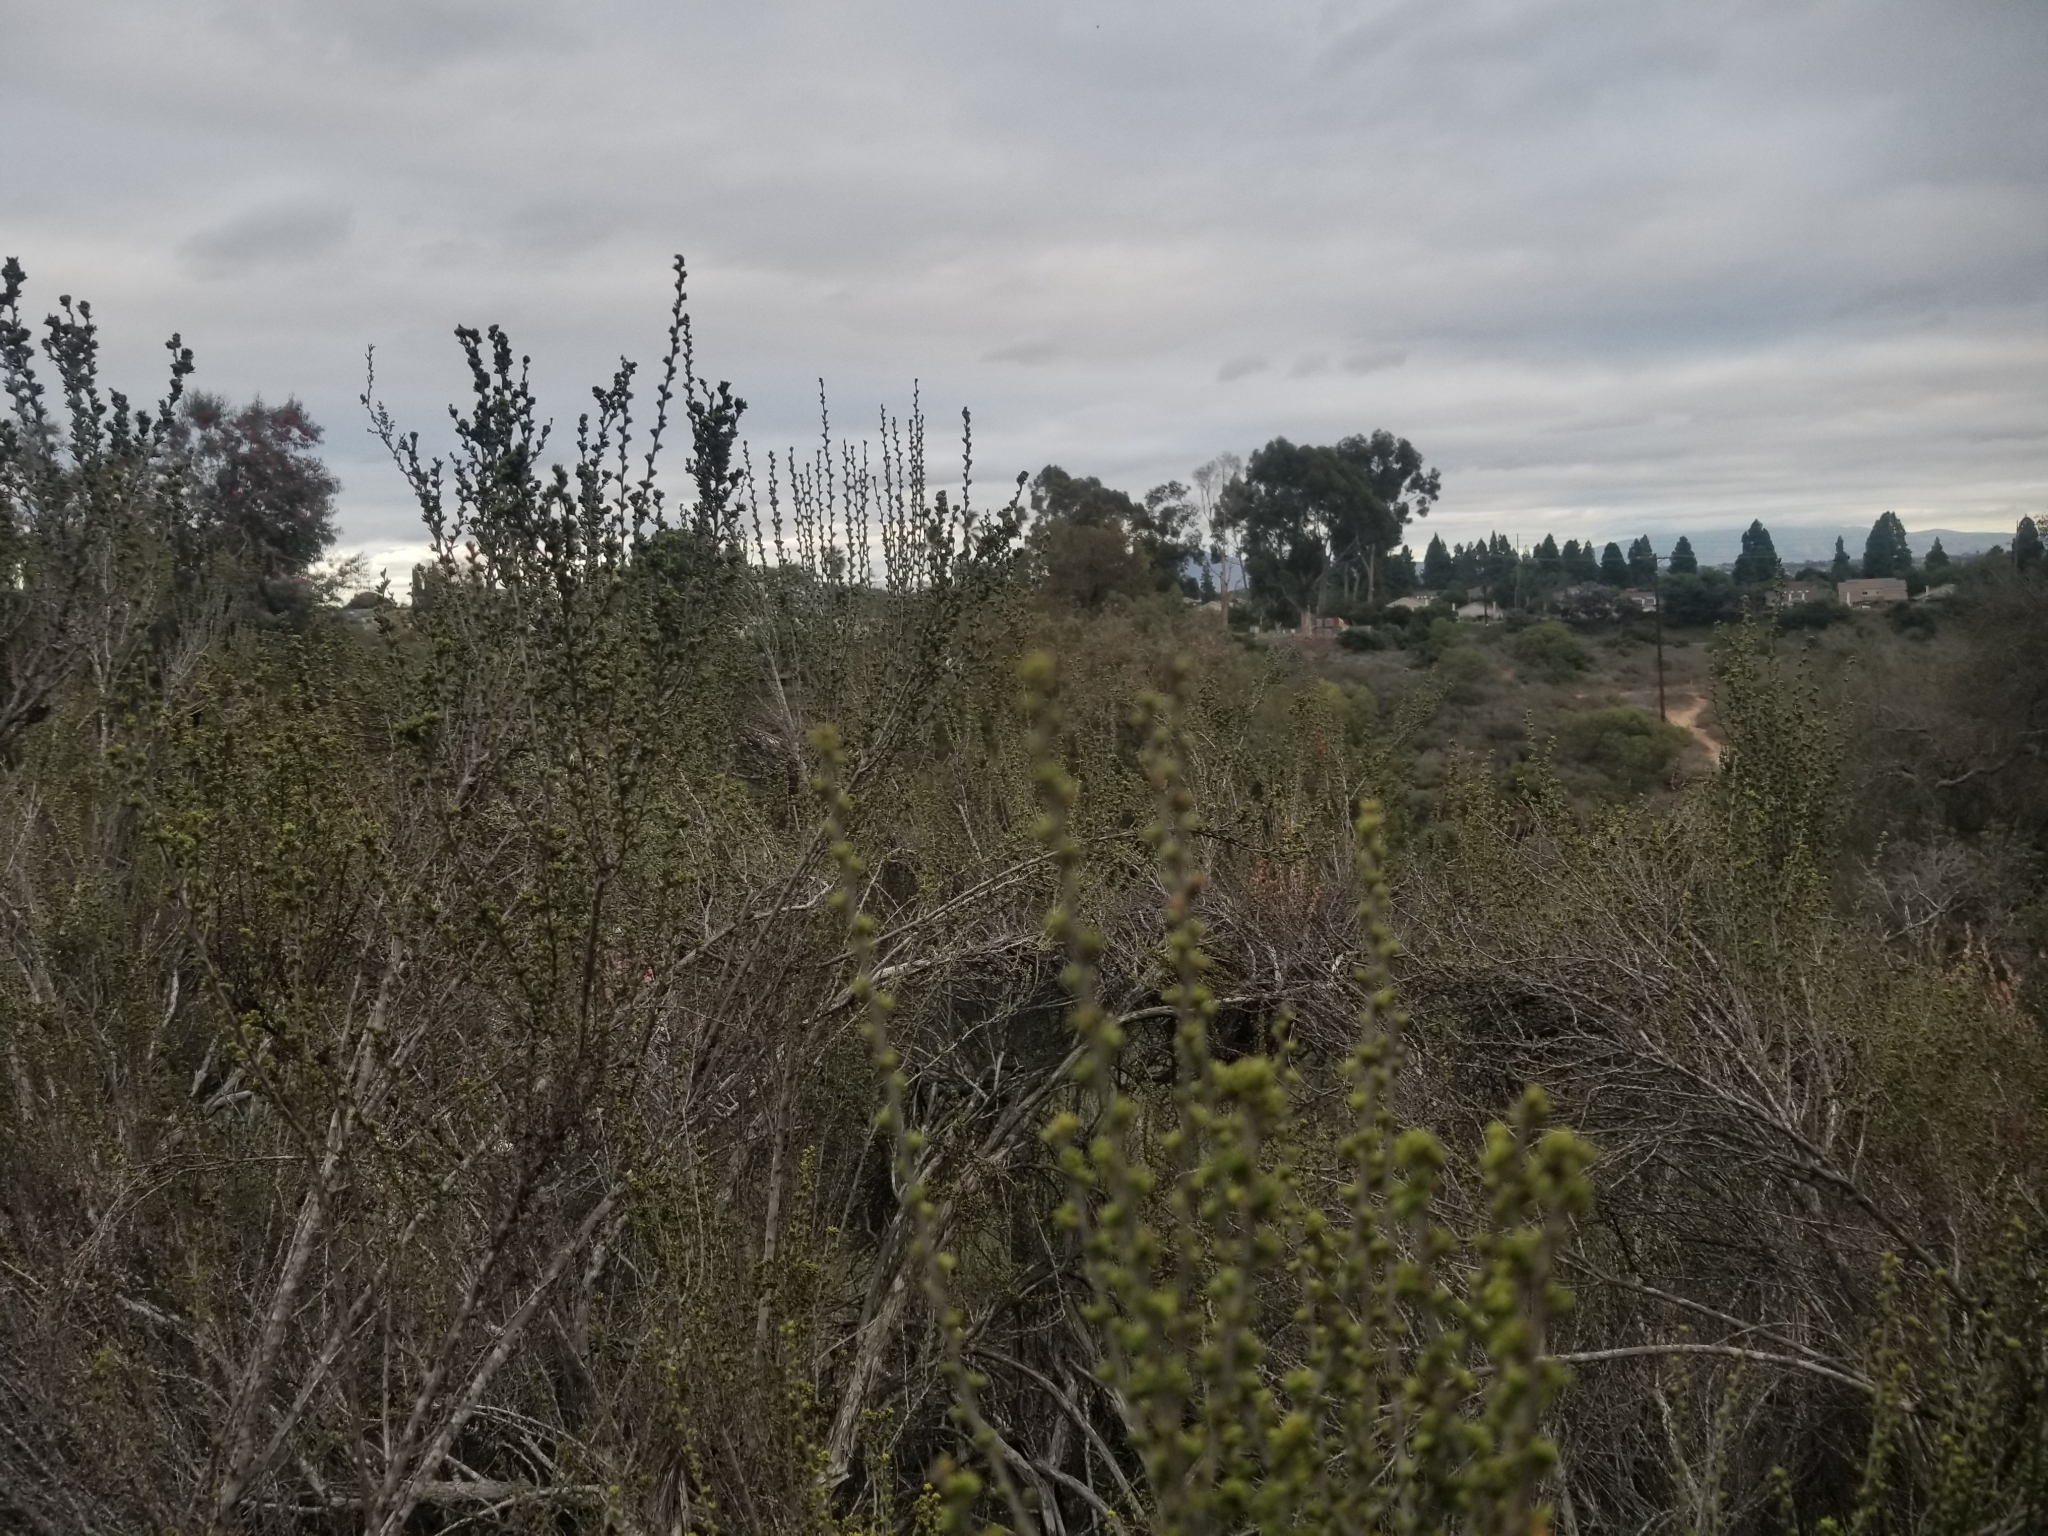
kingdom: Plantae
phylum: Tracheophyta
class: Magnoliopsida
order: Rosales
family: Rosaceae
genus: Adenostoma
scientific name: Adenostoma fasciculatum
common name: Chamise
